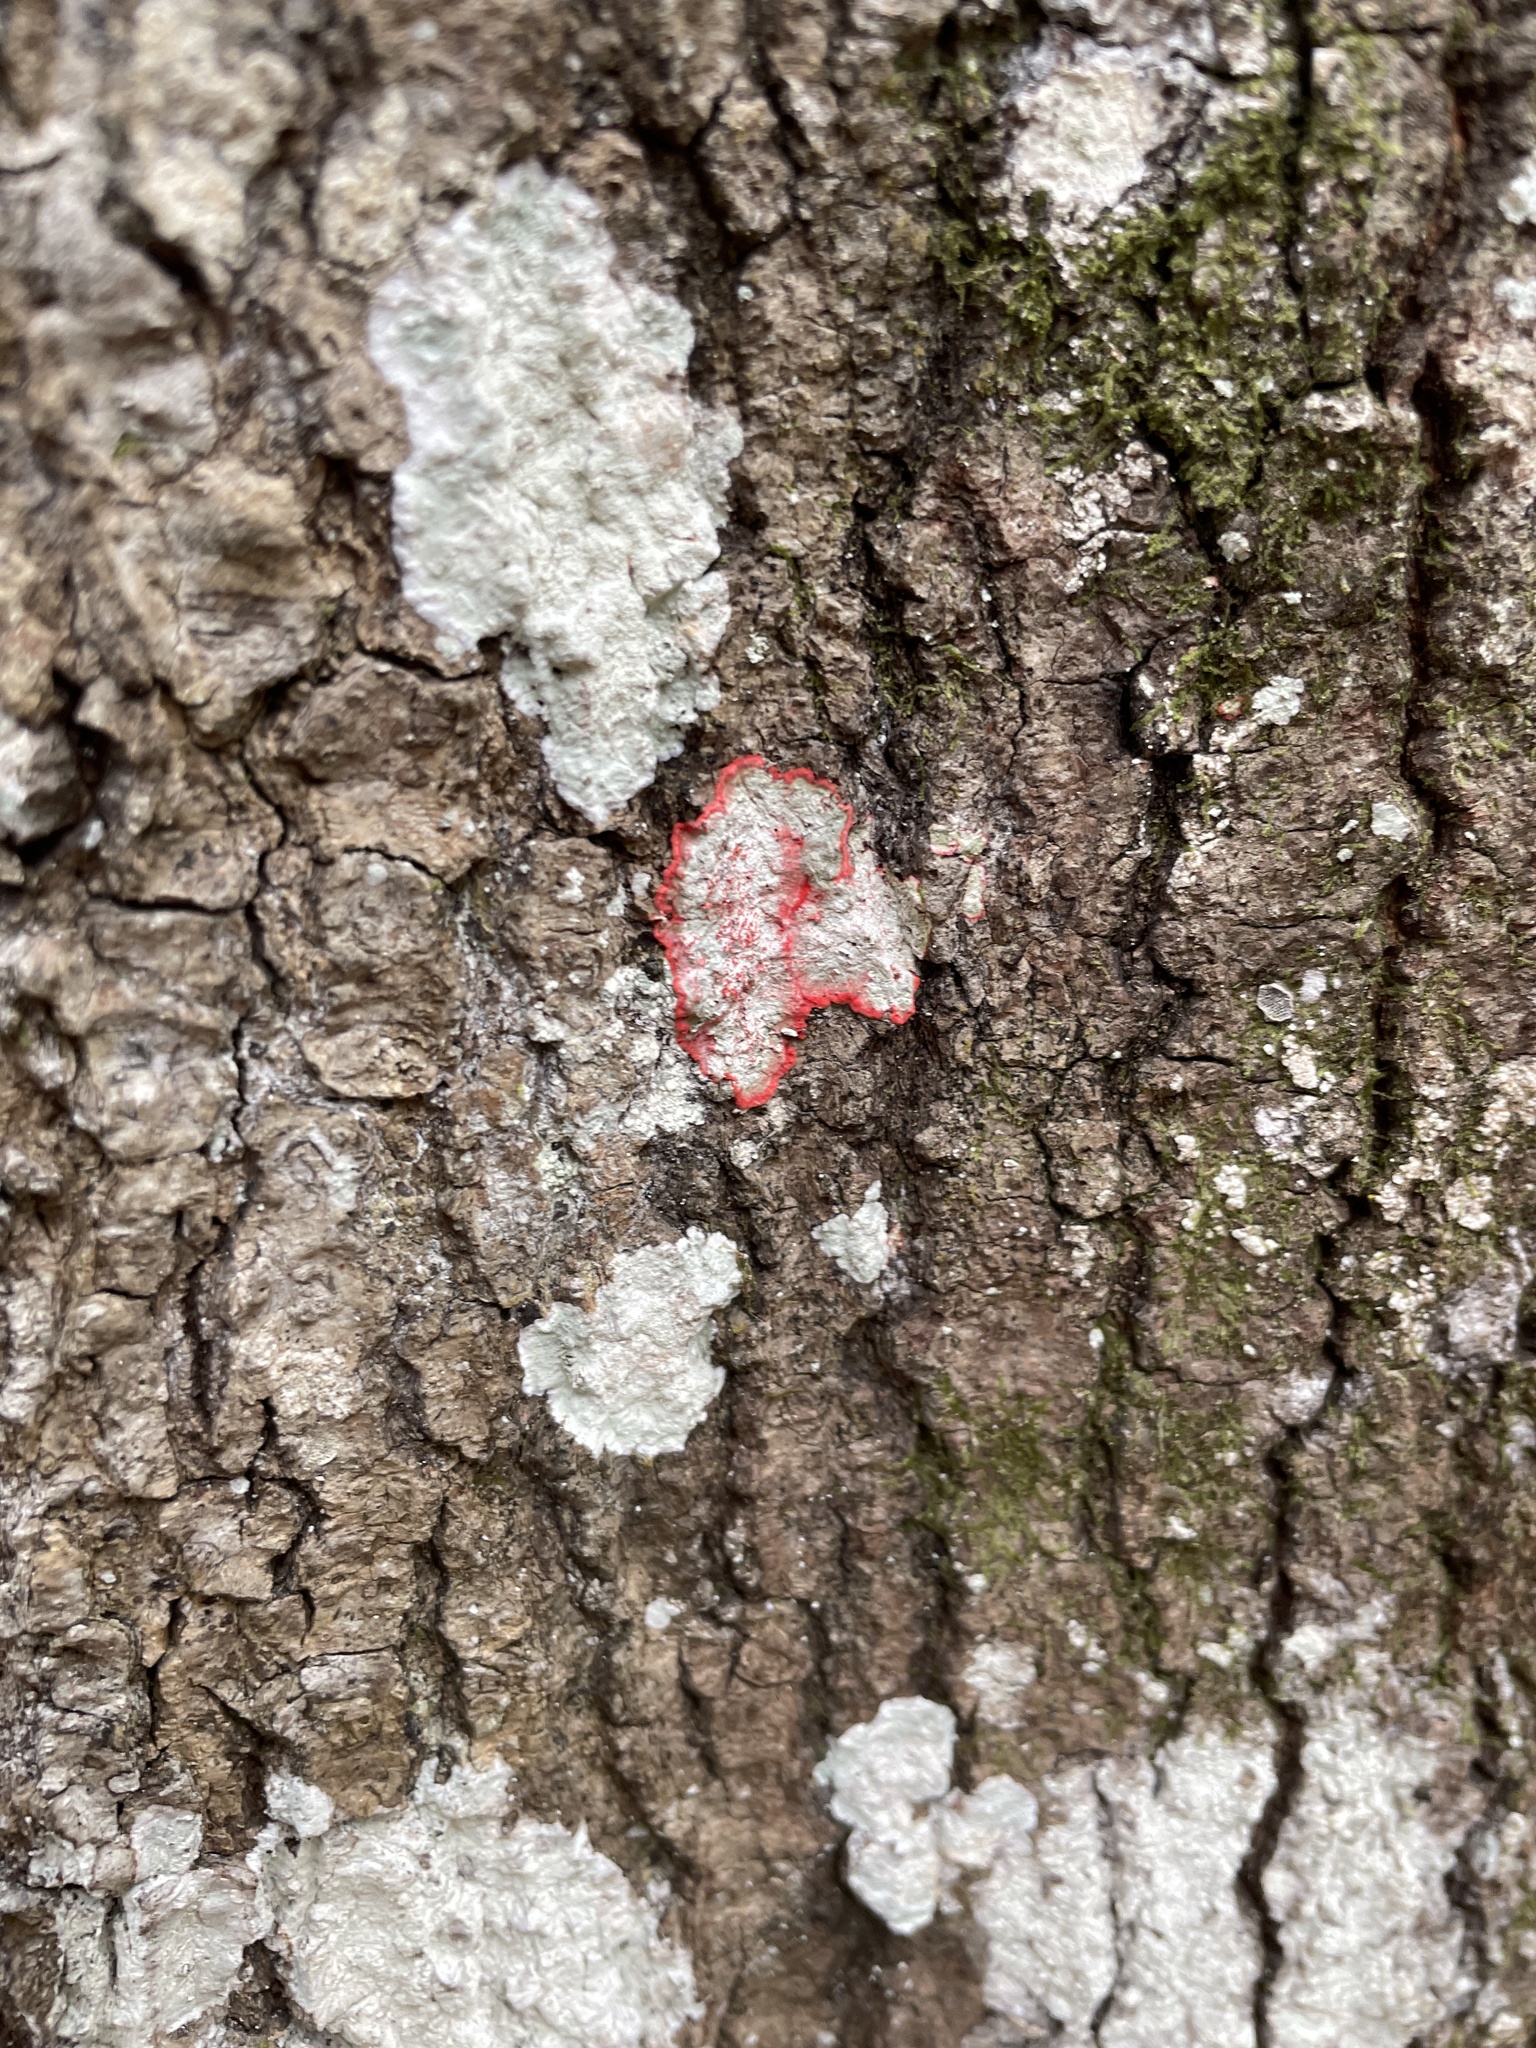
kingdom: Fungi
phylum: Ascomycota
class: Arthoniomycetes
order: Arthoniales
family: Arthoniaceae
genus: Herpothallon
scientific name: Herpothallon rubrocinctum
